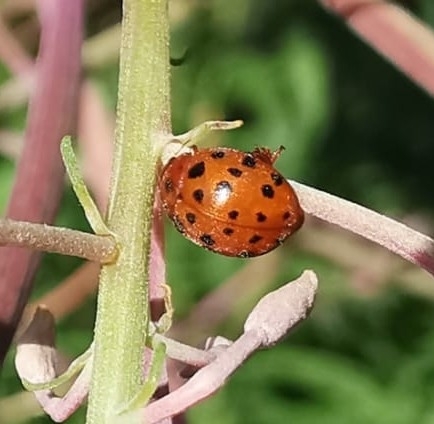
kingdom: Animalia
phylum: Arthropoda
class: Insecta
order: Coleoptera
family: Coccinellidae
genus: Subcoccinella
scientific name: Subcoccinella vigintiquatuorpunctata
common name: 24-spot ladybird
